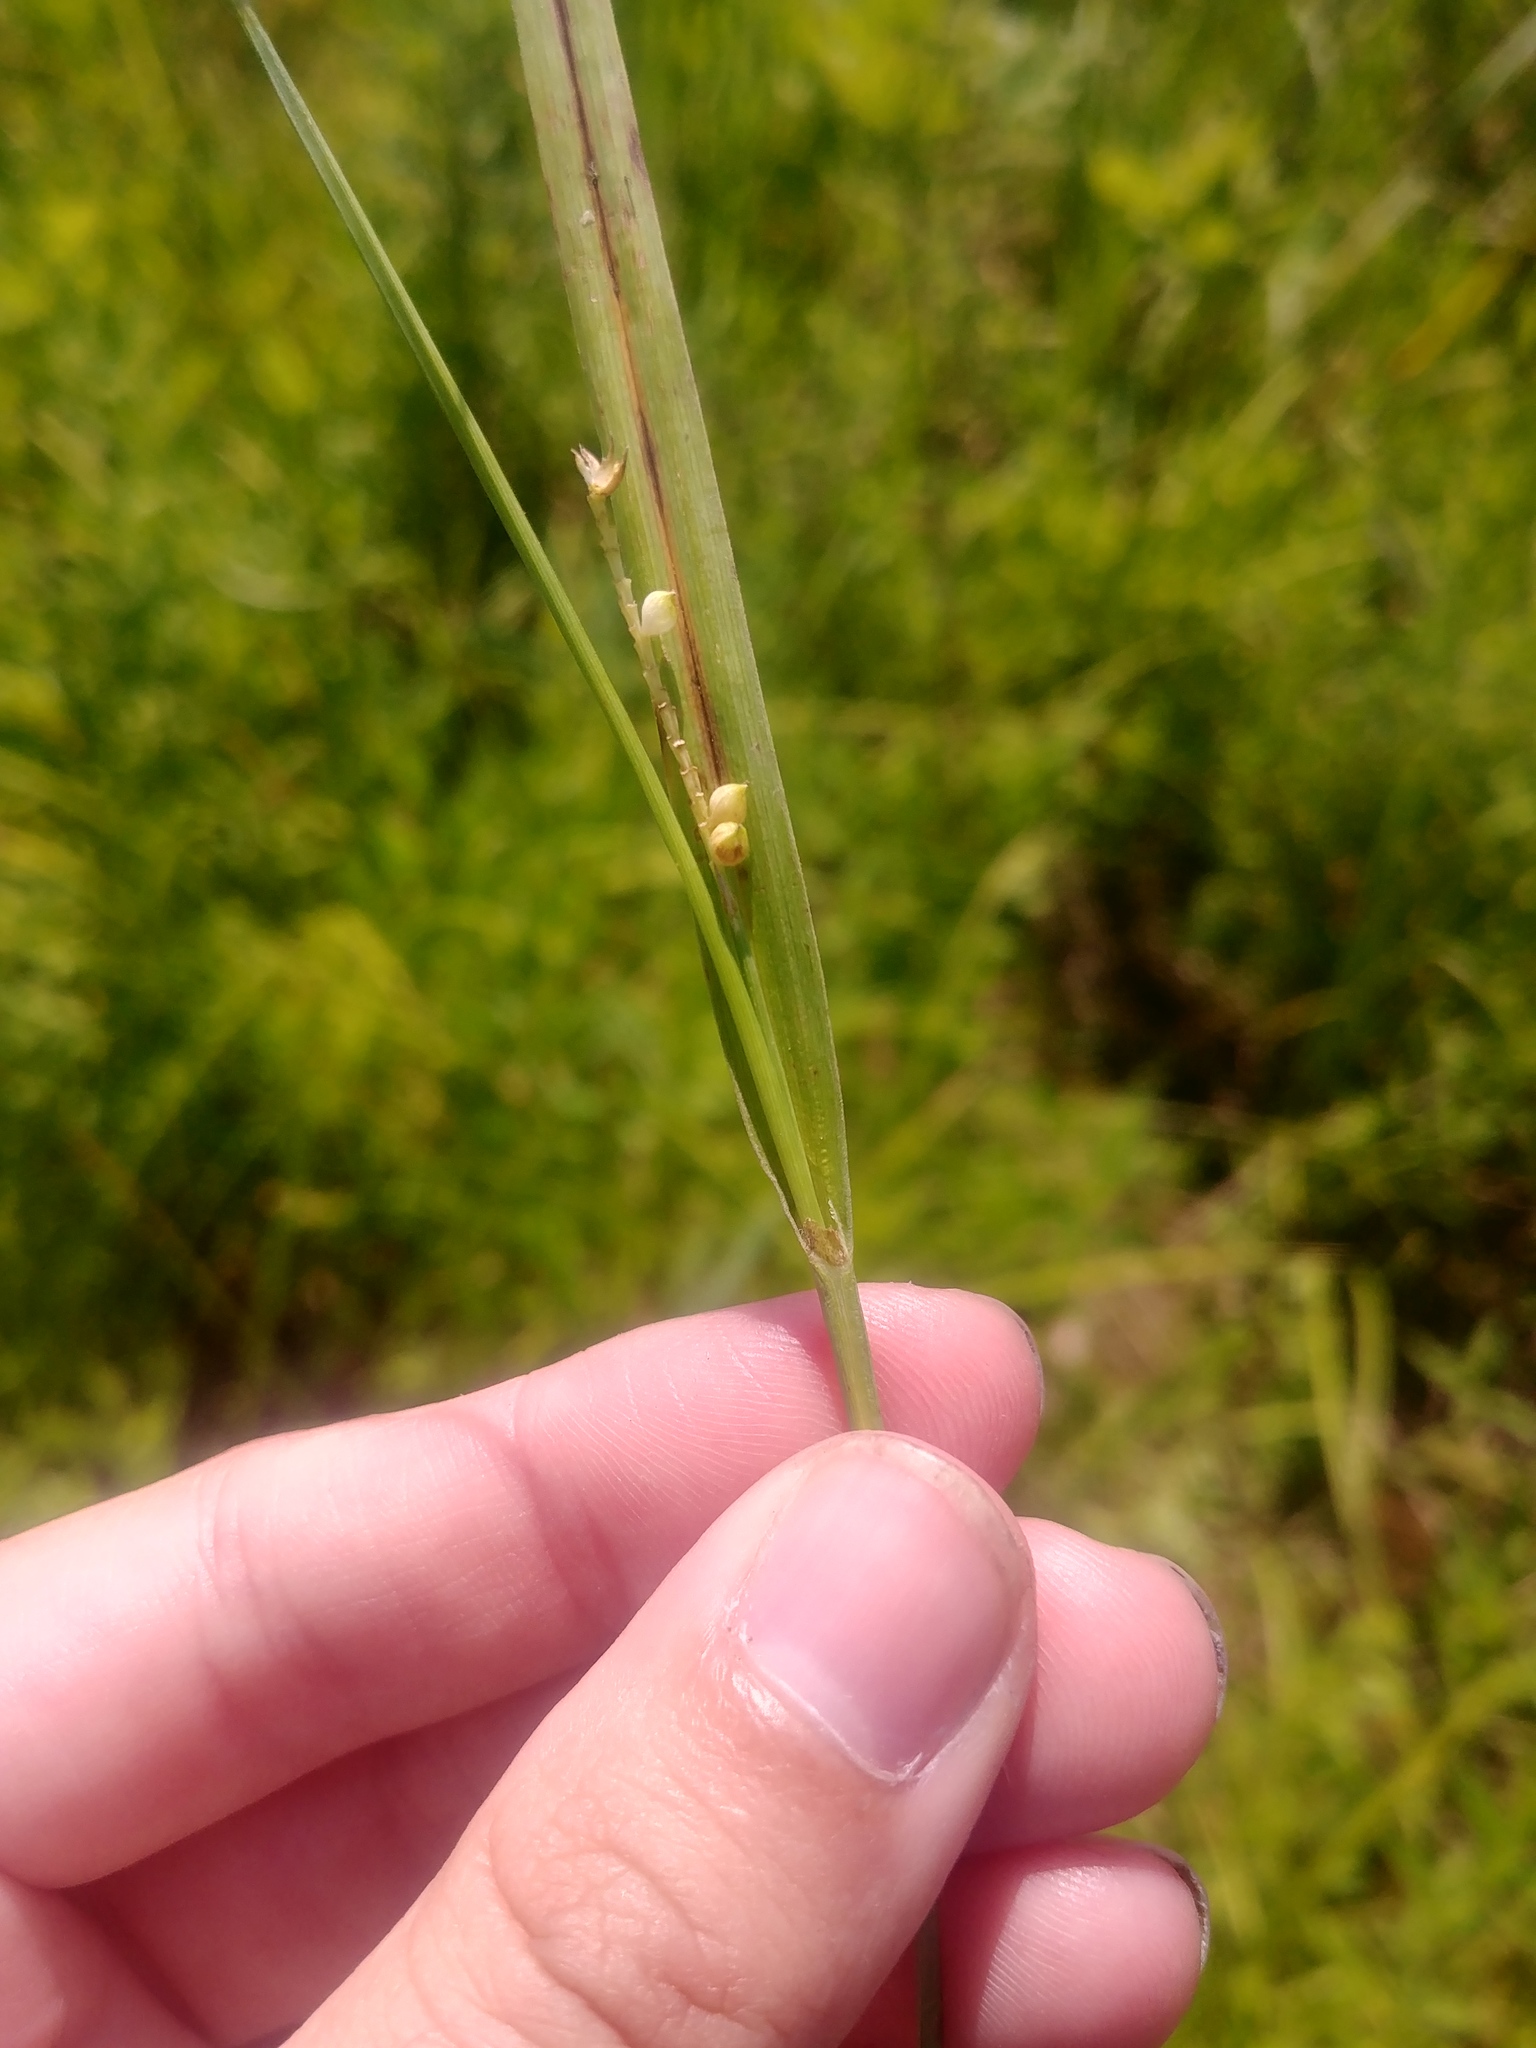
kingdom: Plantae
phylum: Tracheophyta
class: Liliopsida
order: Poales
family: Cyperaceae
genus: Carex
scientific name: Carex granularis
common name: Granular sedge
